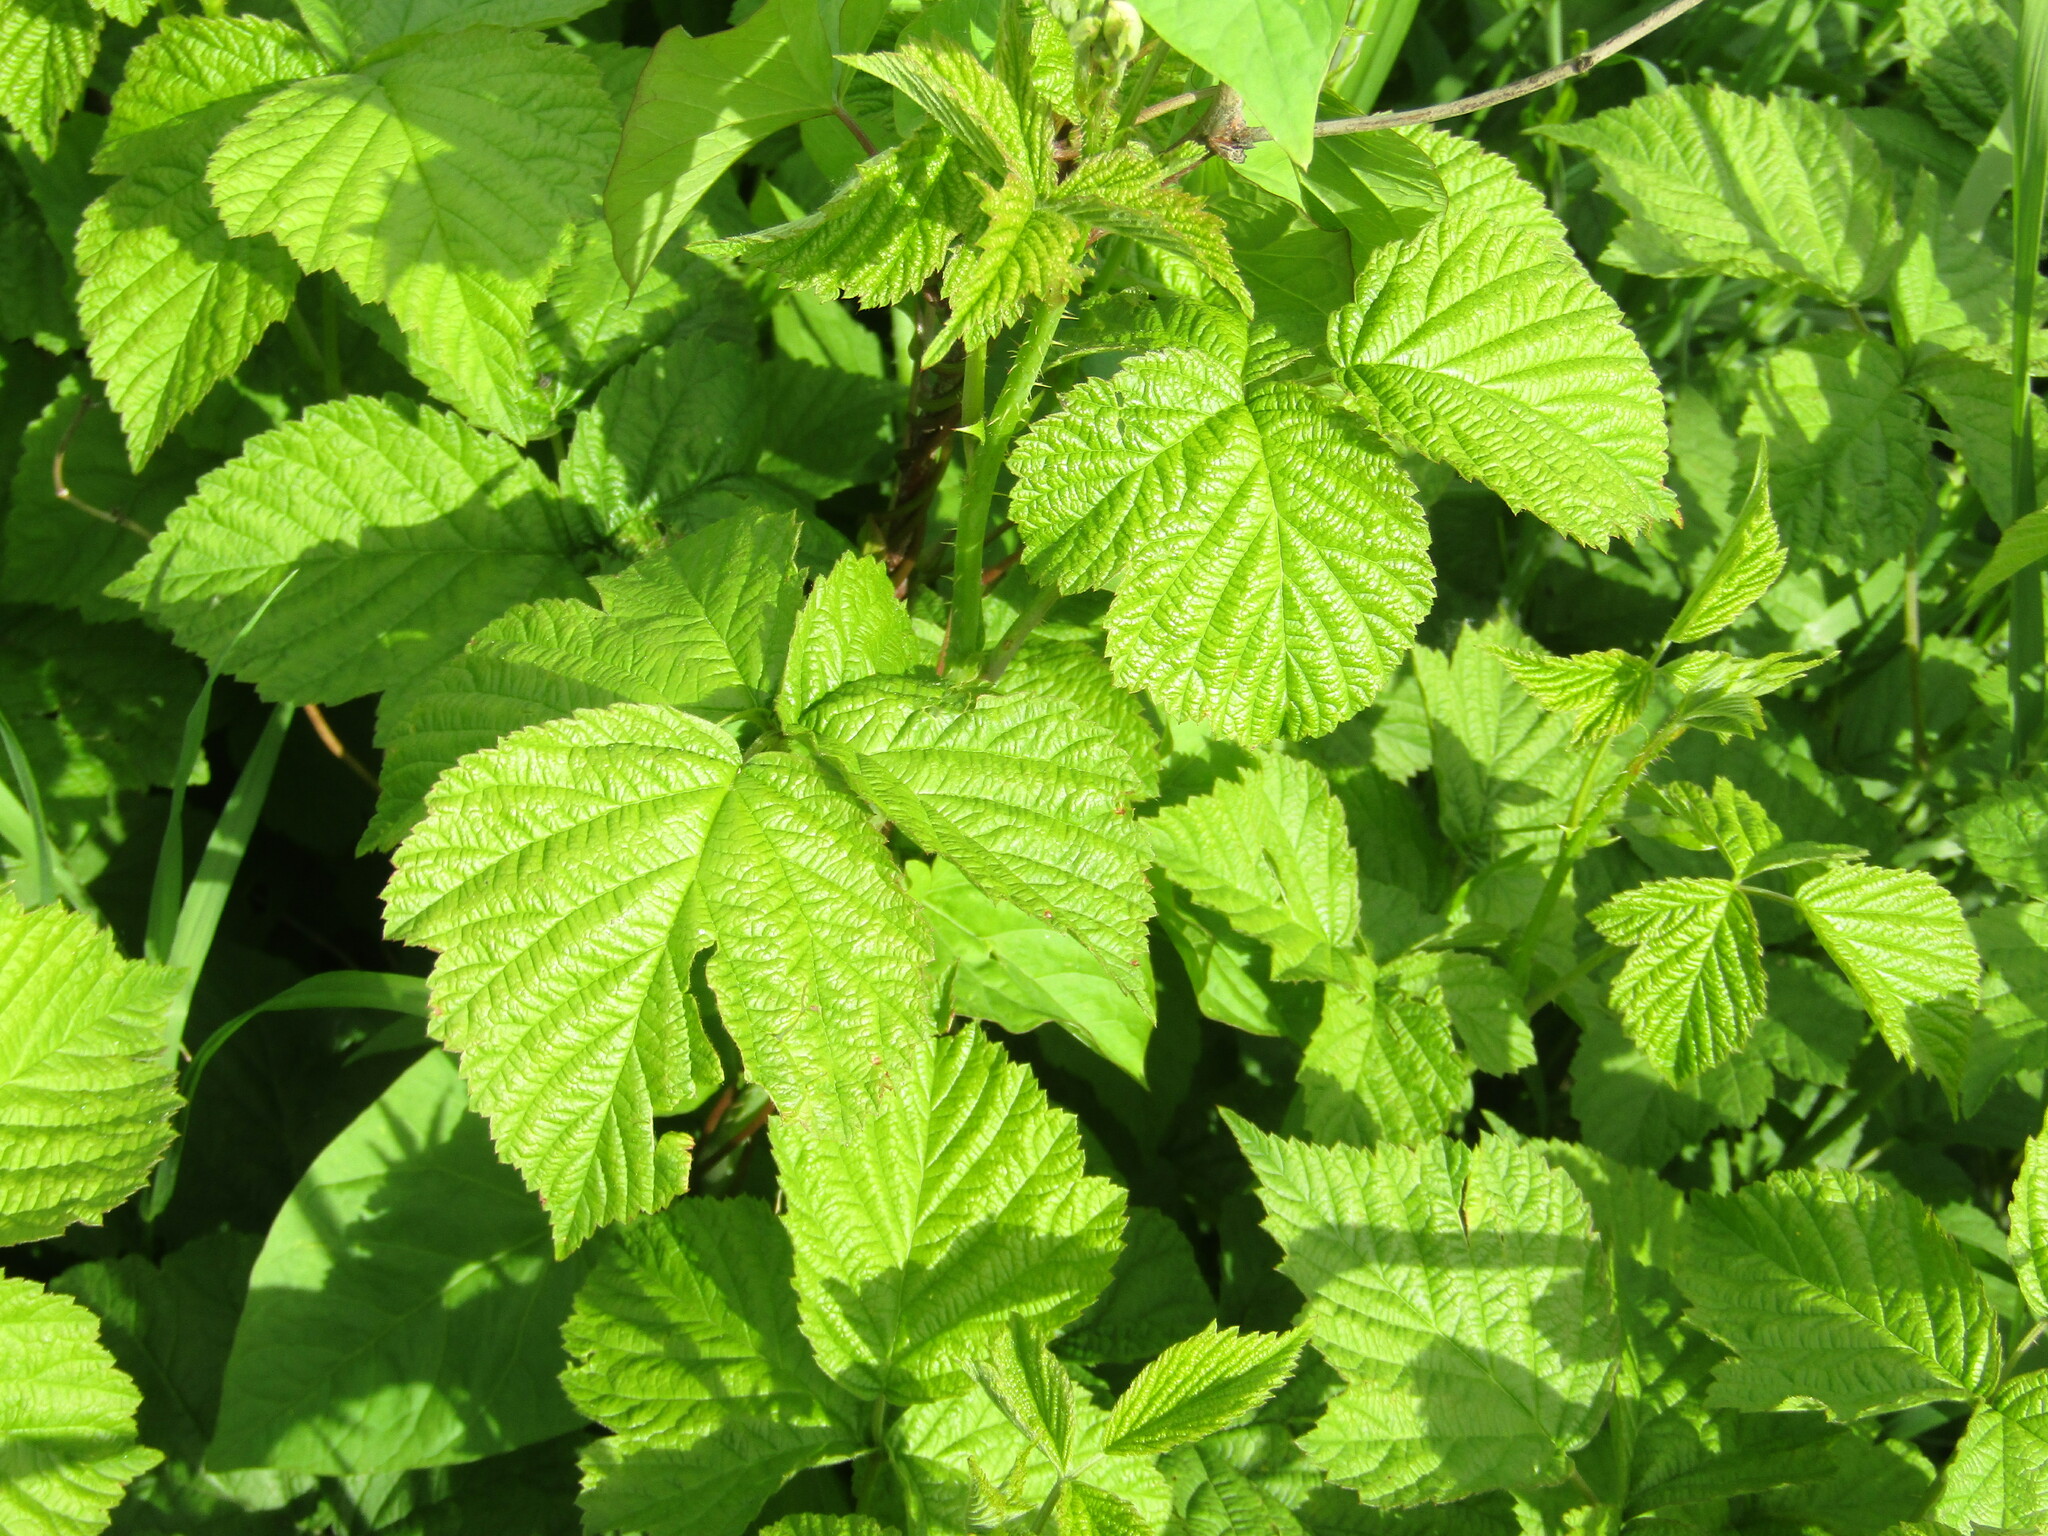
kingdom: Plantae
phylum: Tracheophyta
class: Magnoliopsida
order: Rosales
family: Rosaceae
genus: Rubus
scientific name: Rubus caesius
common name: Dewberry
